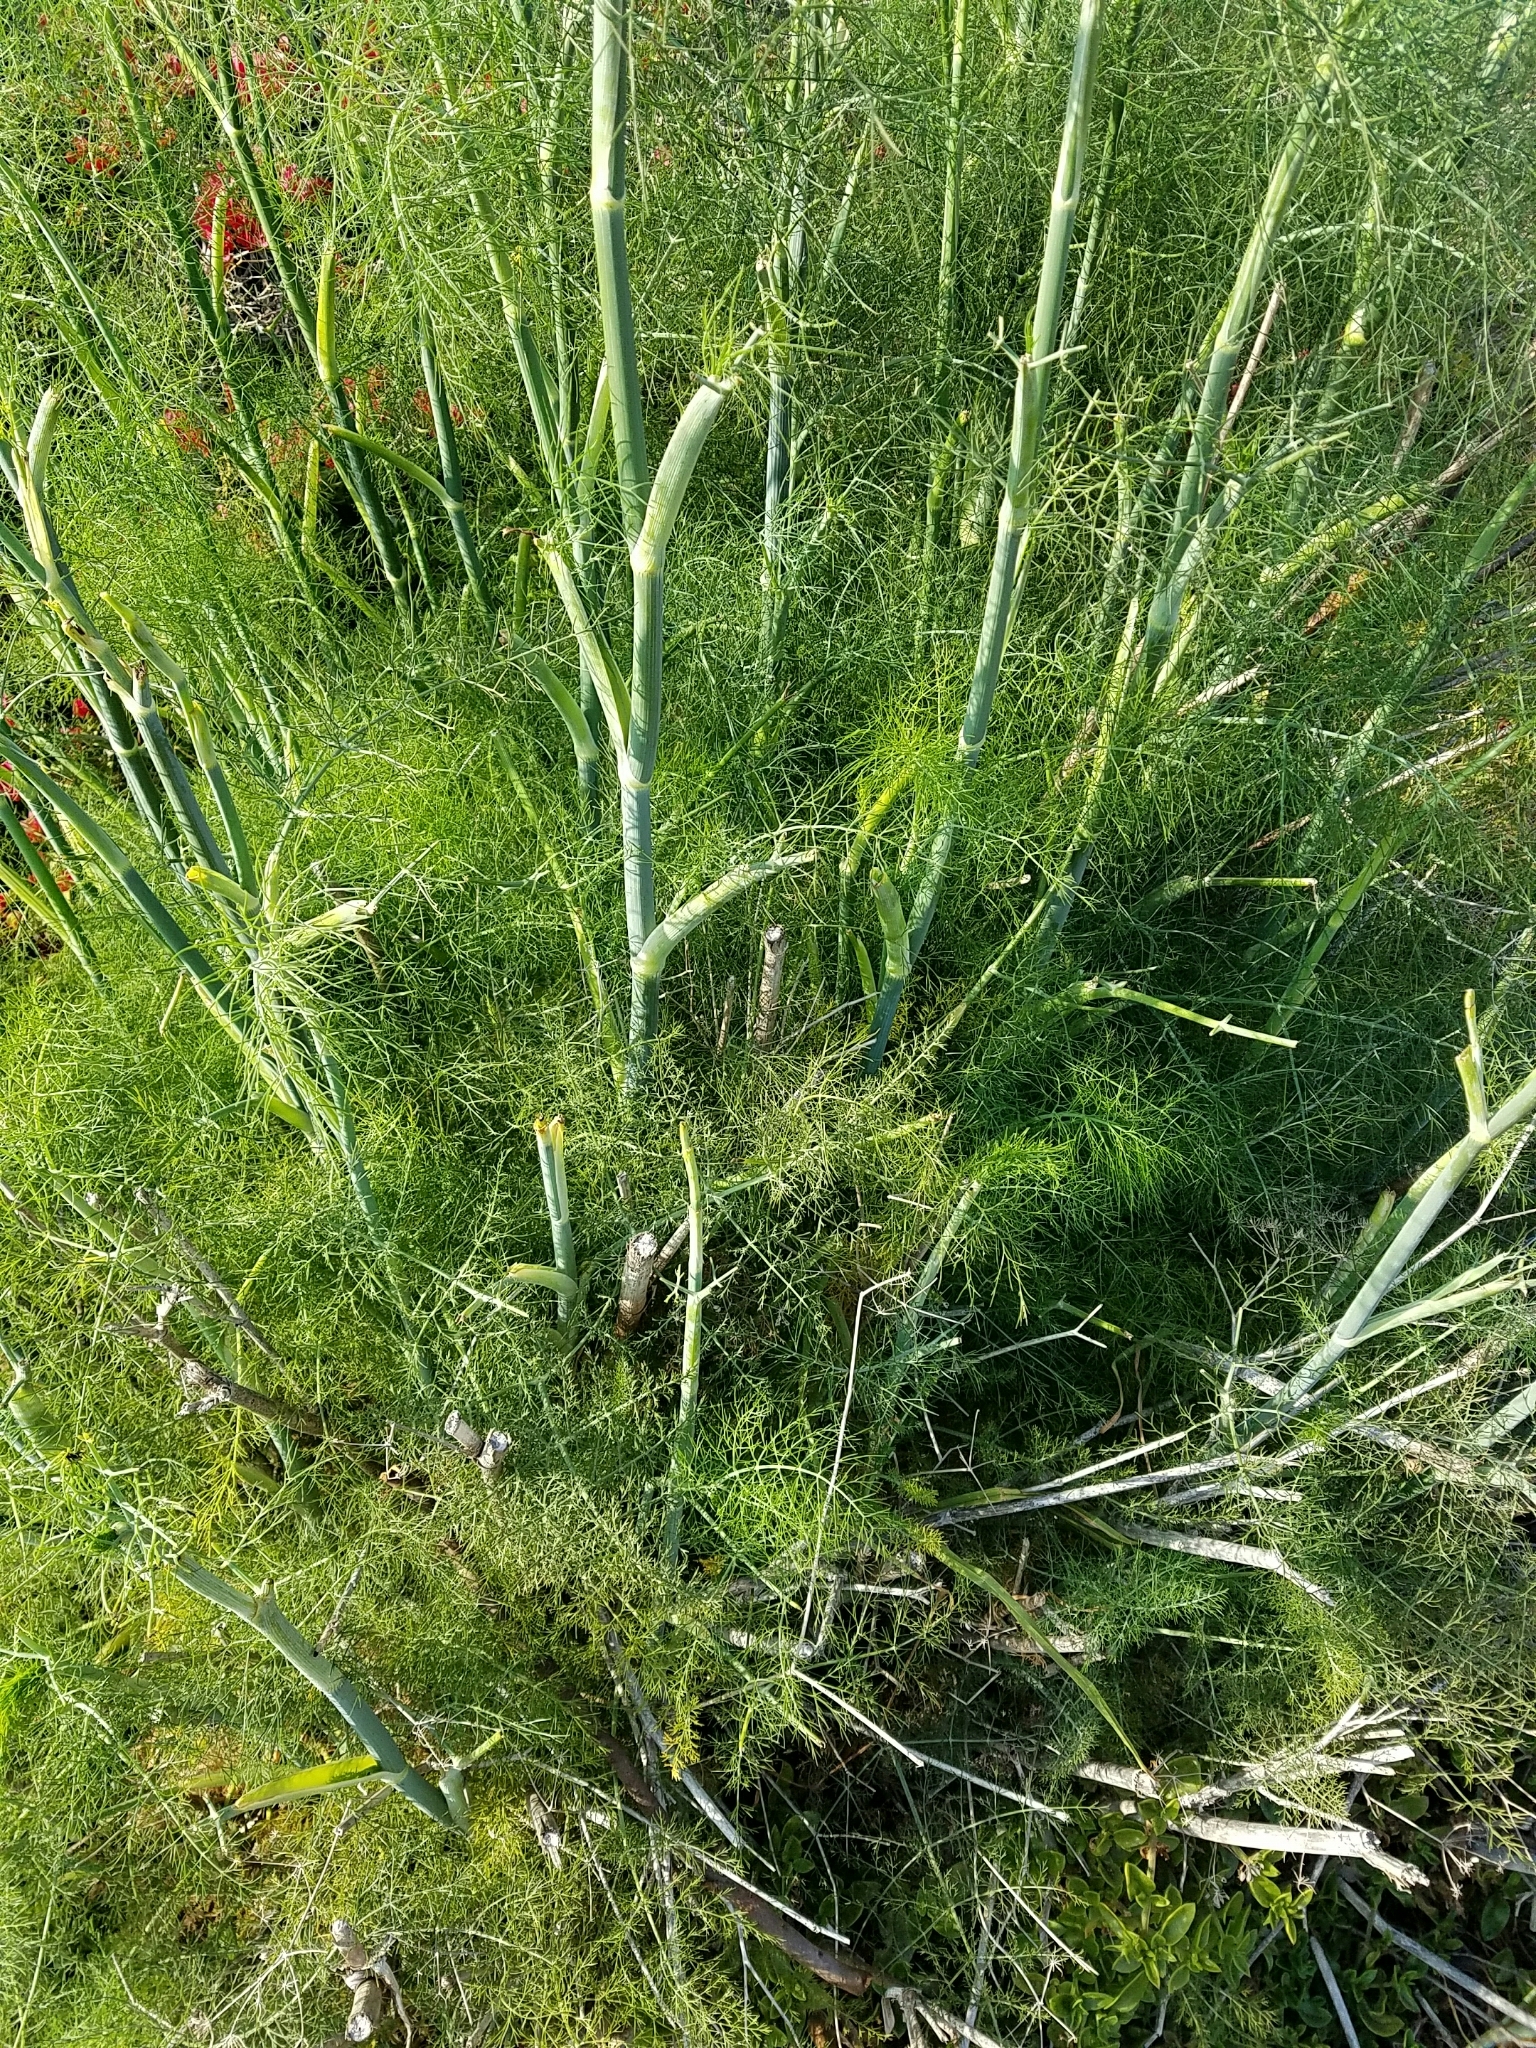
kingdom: Plantae
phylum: Tracheophyta
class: Magnoliopsida
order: Apiales
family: Apiaceae
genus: Foeniculum
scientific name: Foeniculum vulgare
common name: Fennel
